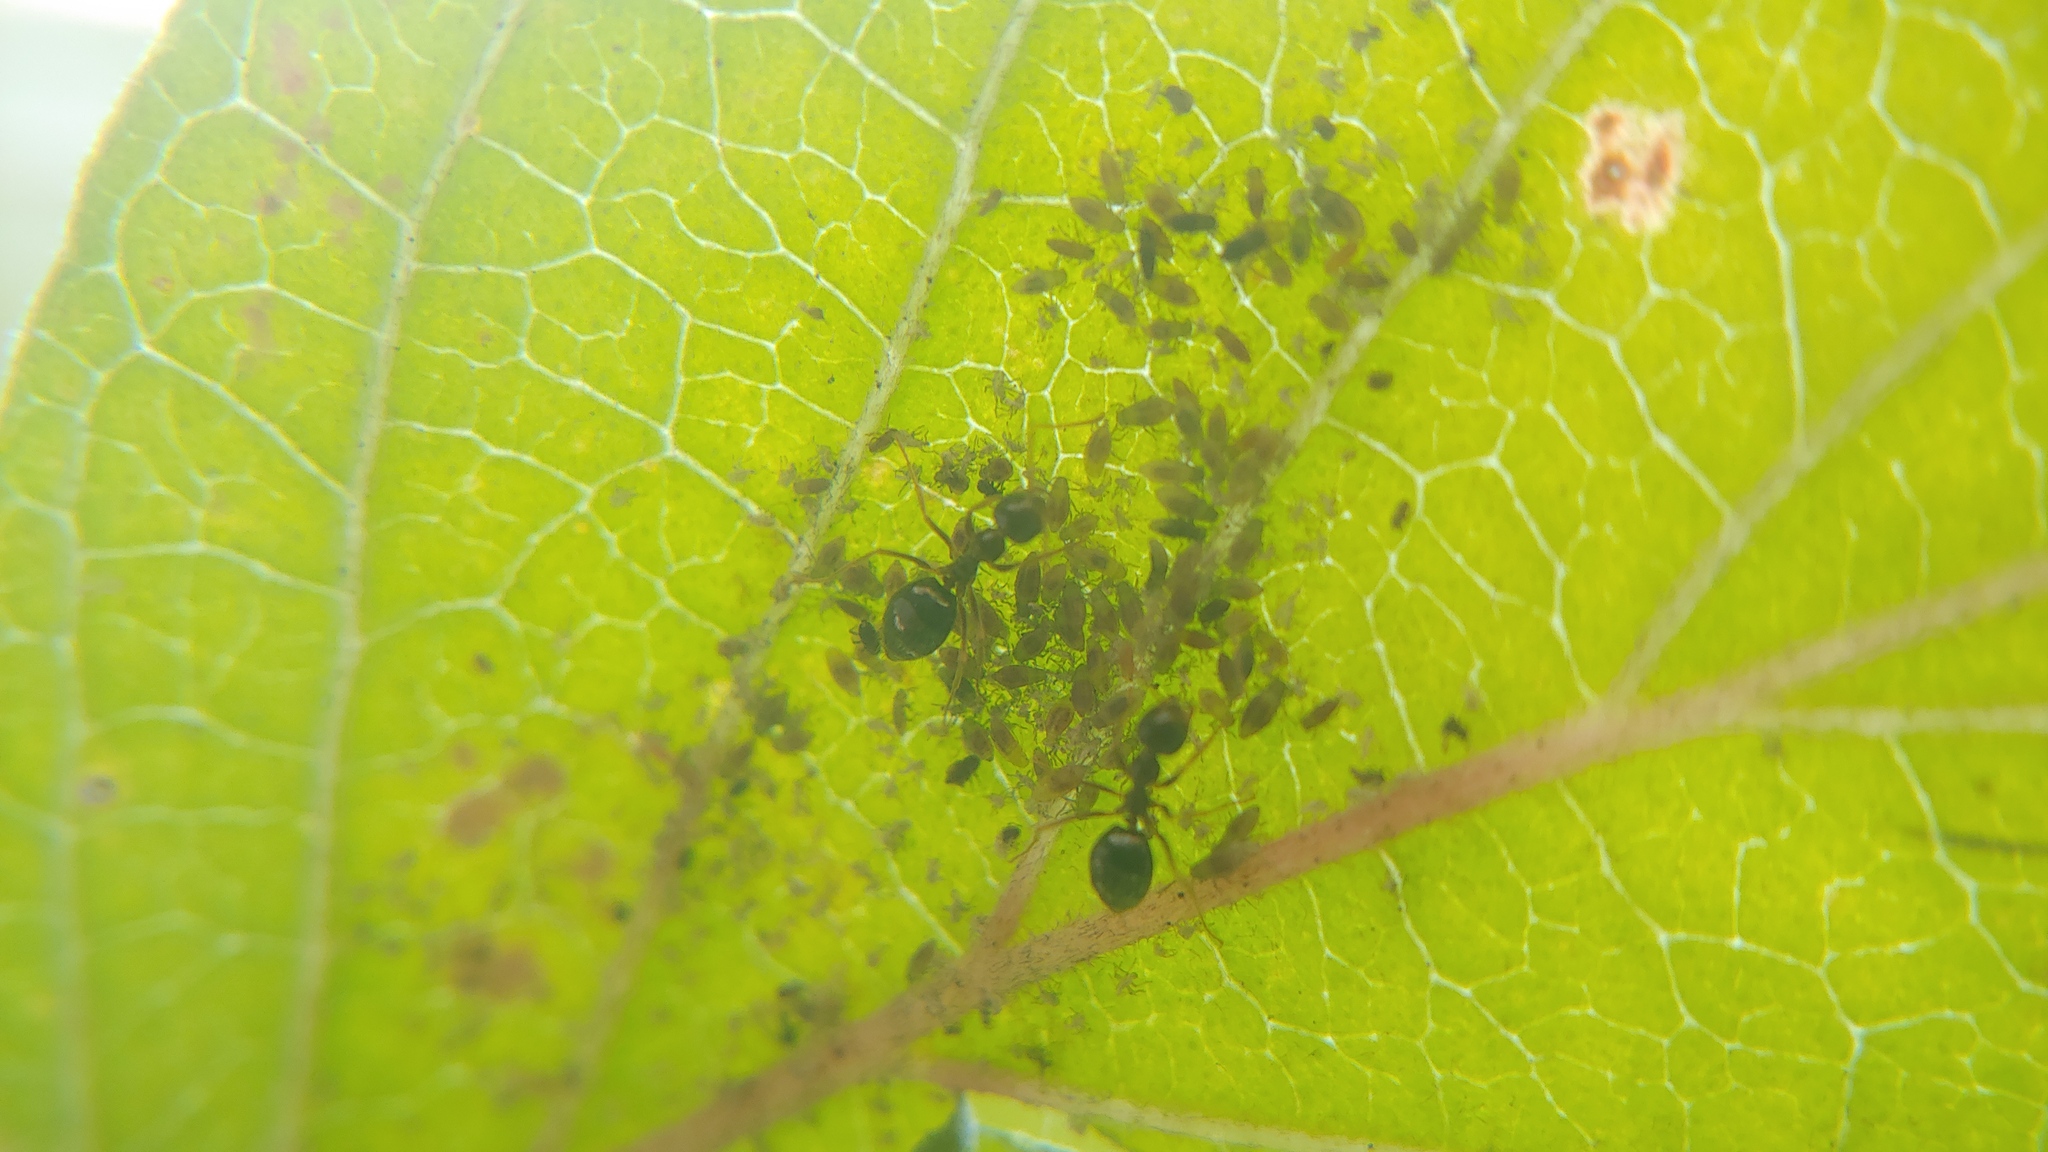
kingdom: Animalia
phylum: Arthropoda
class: Insecta
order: Hymenoptera
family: Formicidae
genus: Prenolepis
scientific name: Prenolepis imparis
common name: Small honey ant
